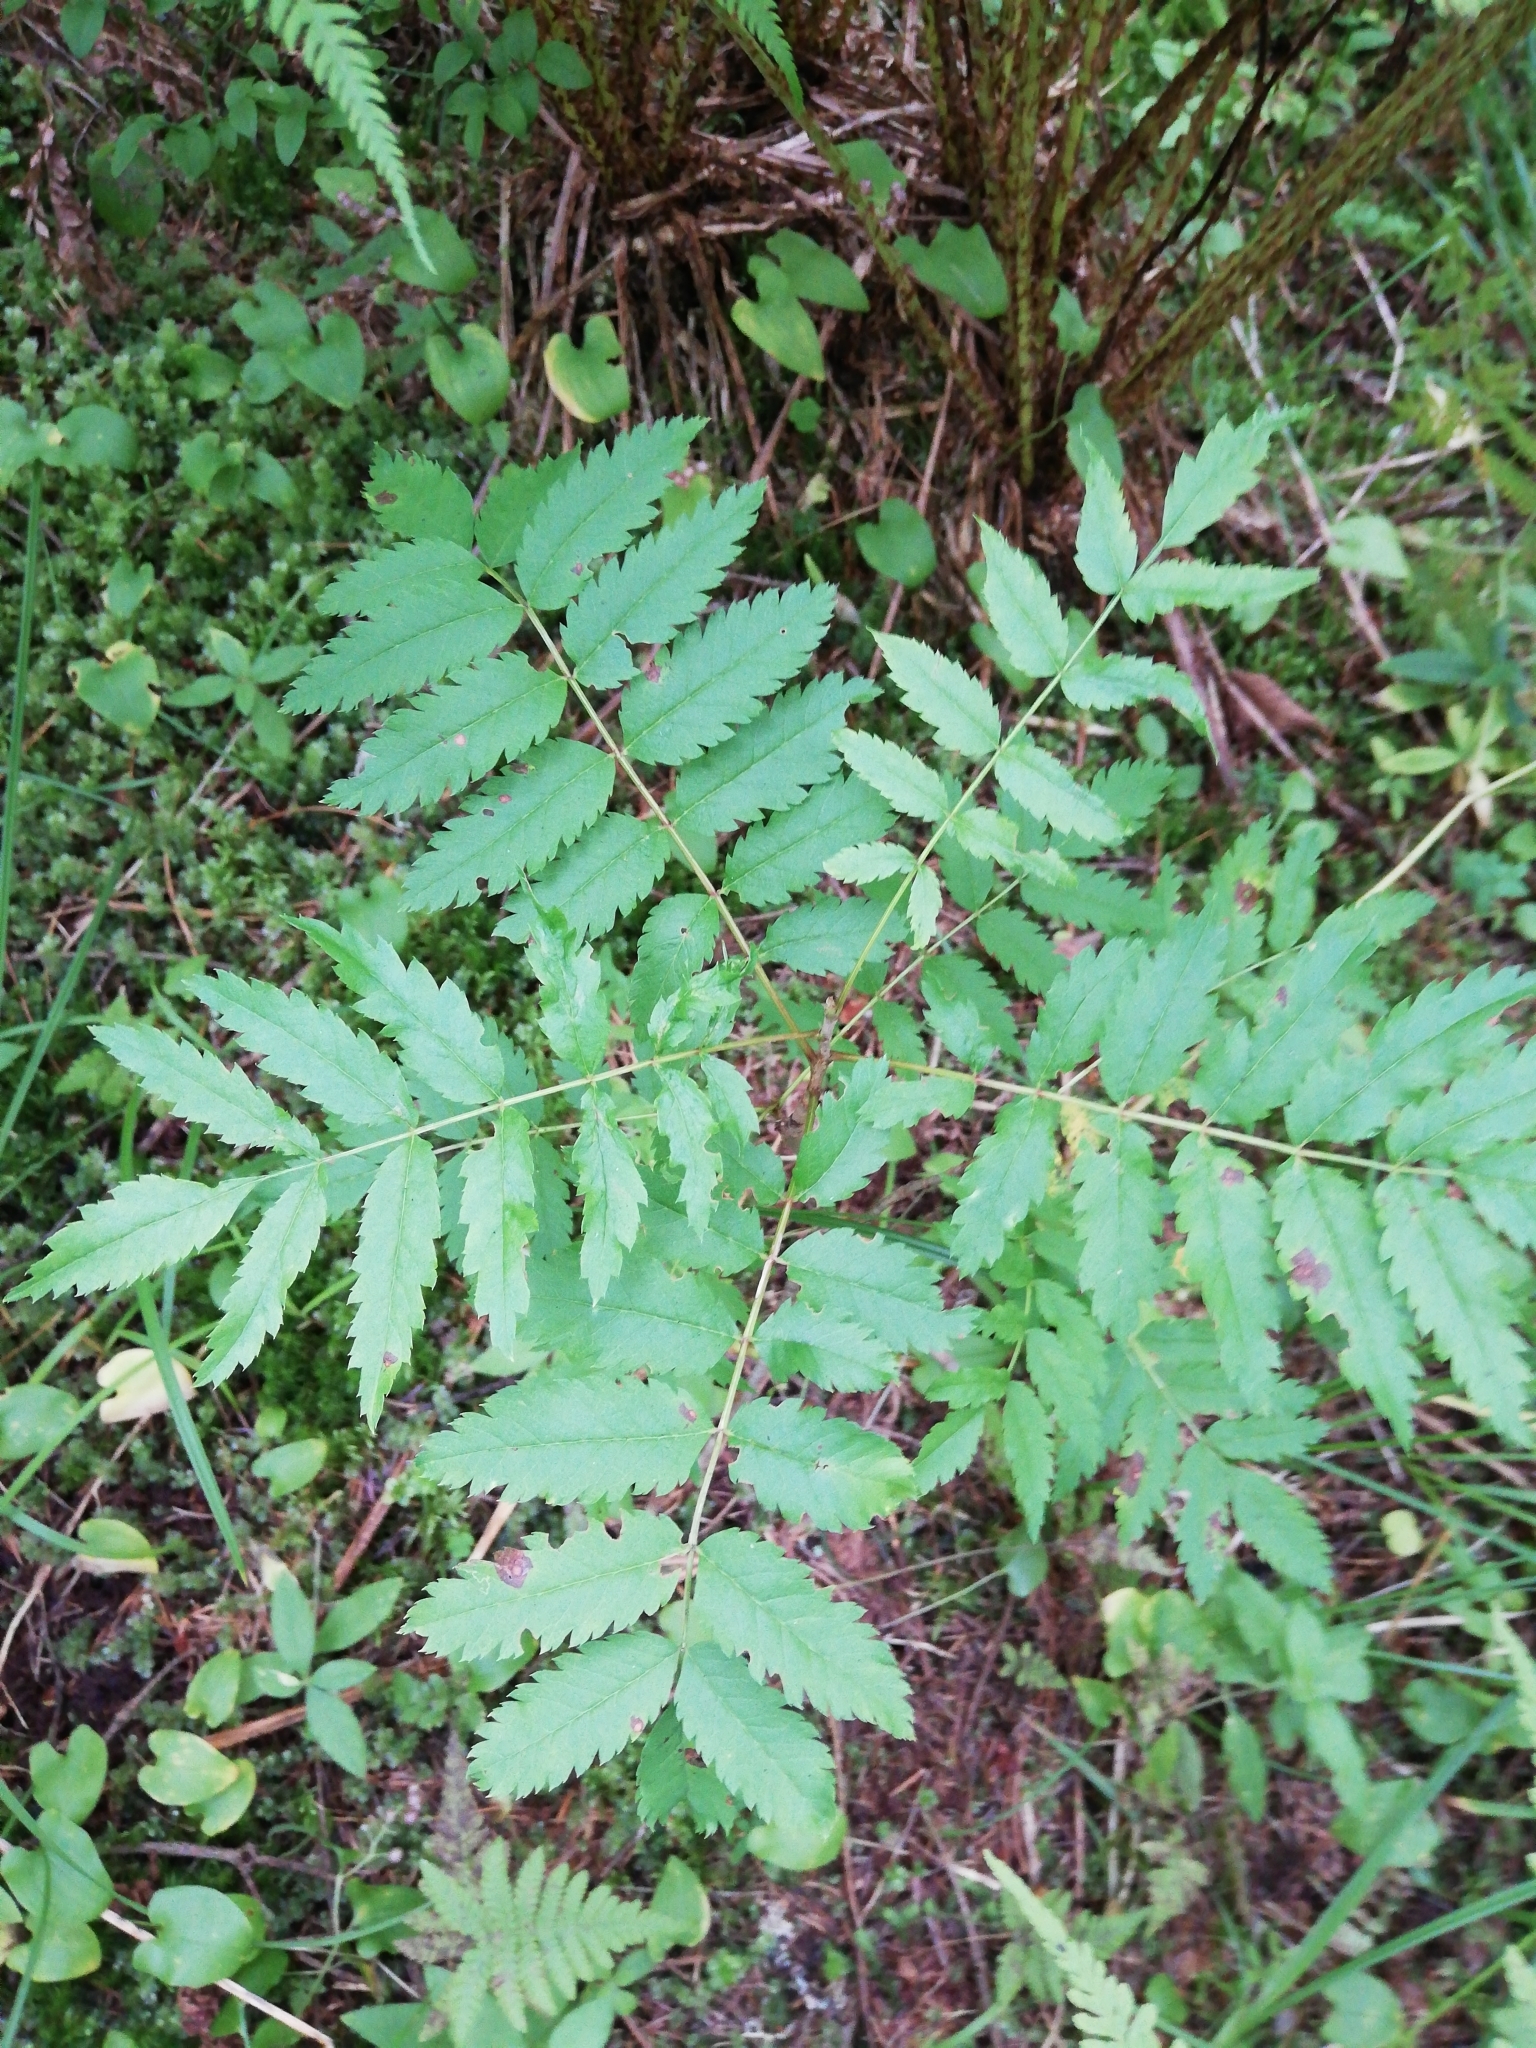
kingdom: Plantae
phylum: Tracheophyta
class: Magnoliopsida
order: Rosales
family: Rosaceae
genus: Sorbus
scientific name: Sorbus aucuparia
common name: Rowan
